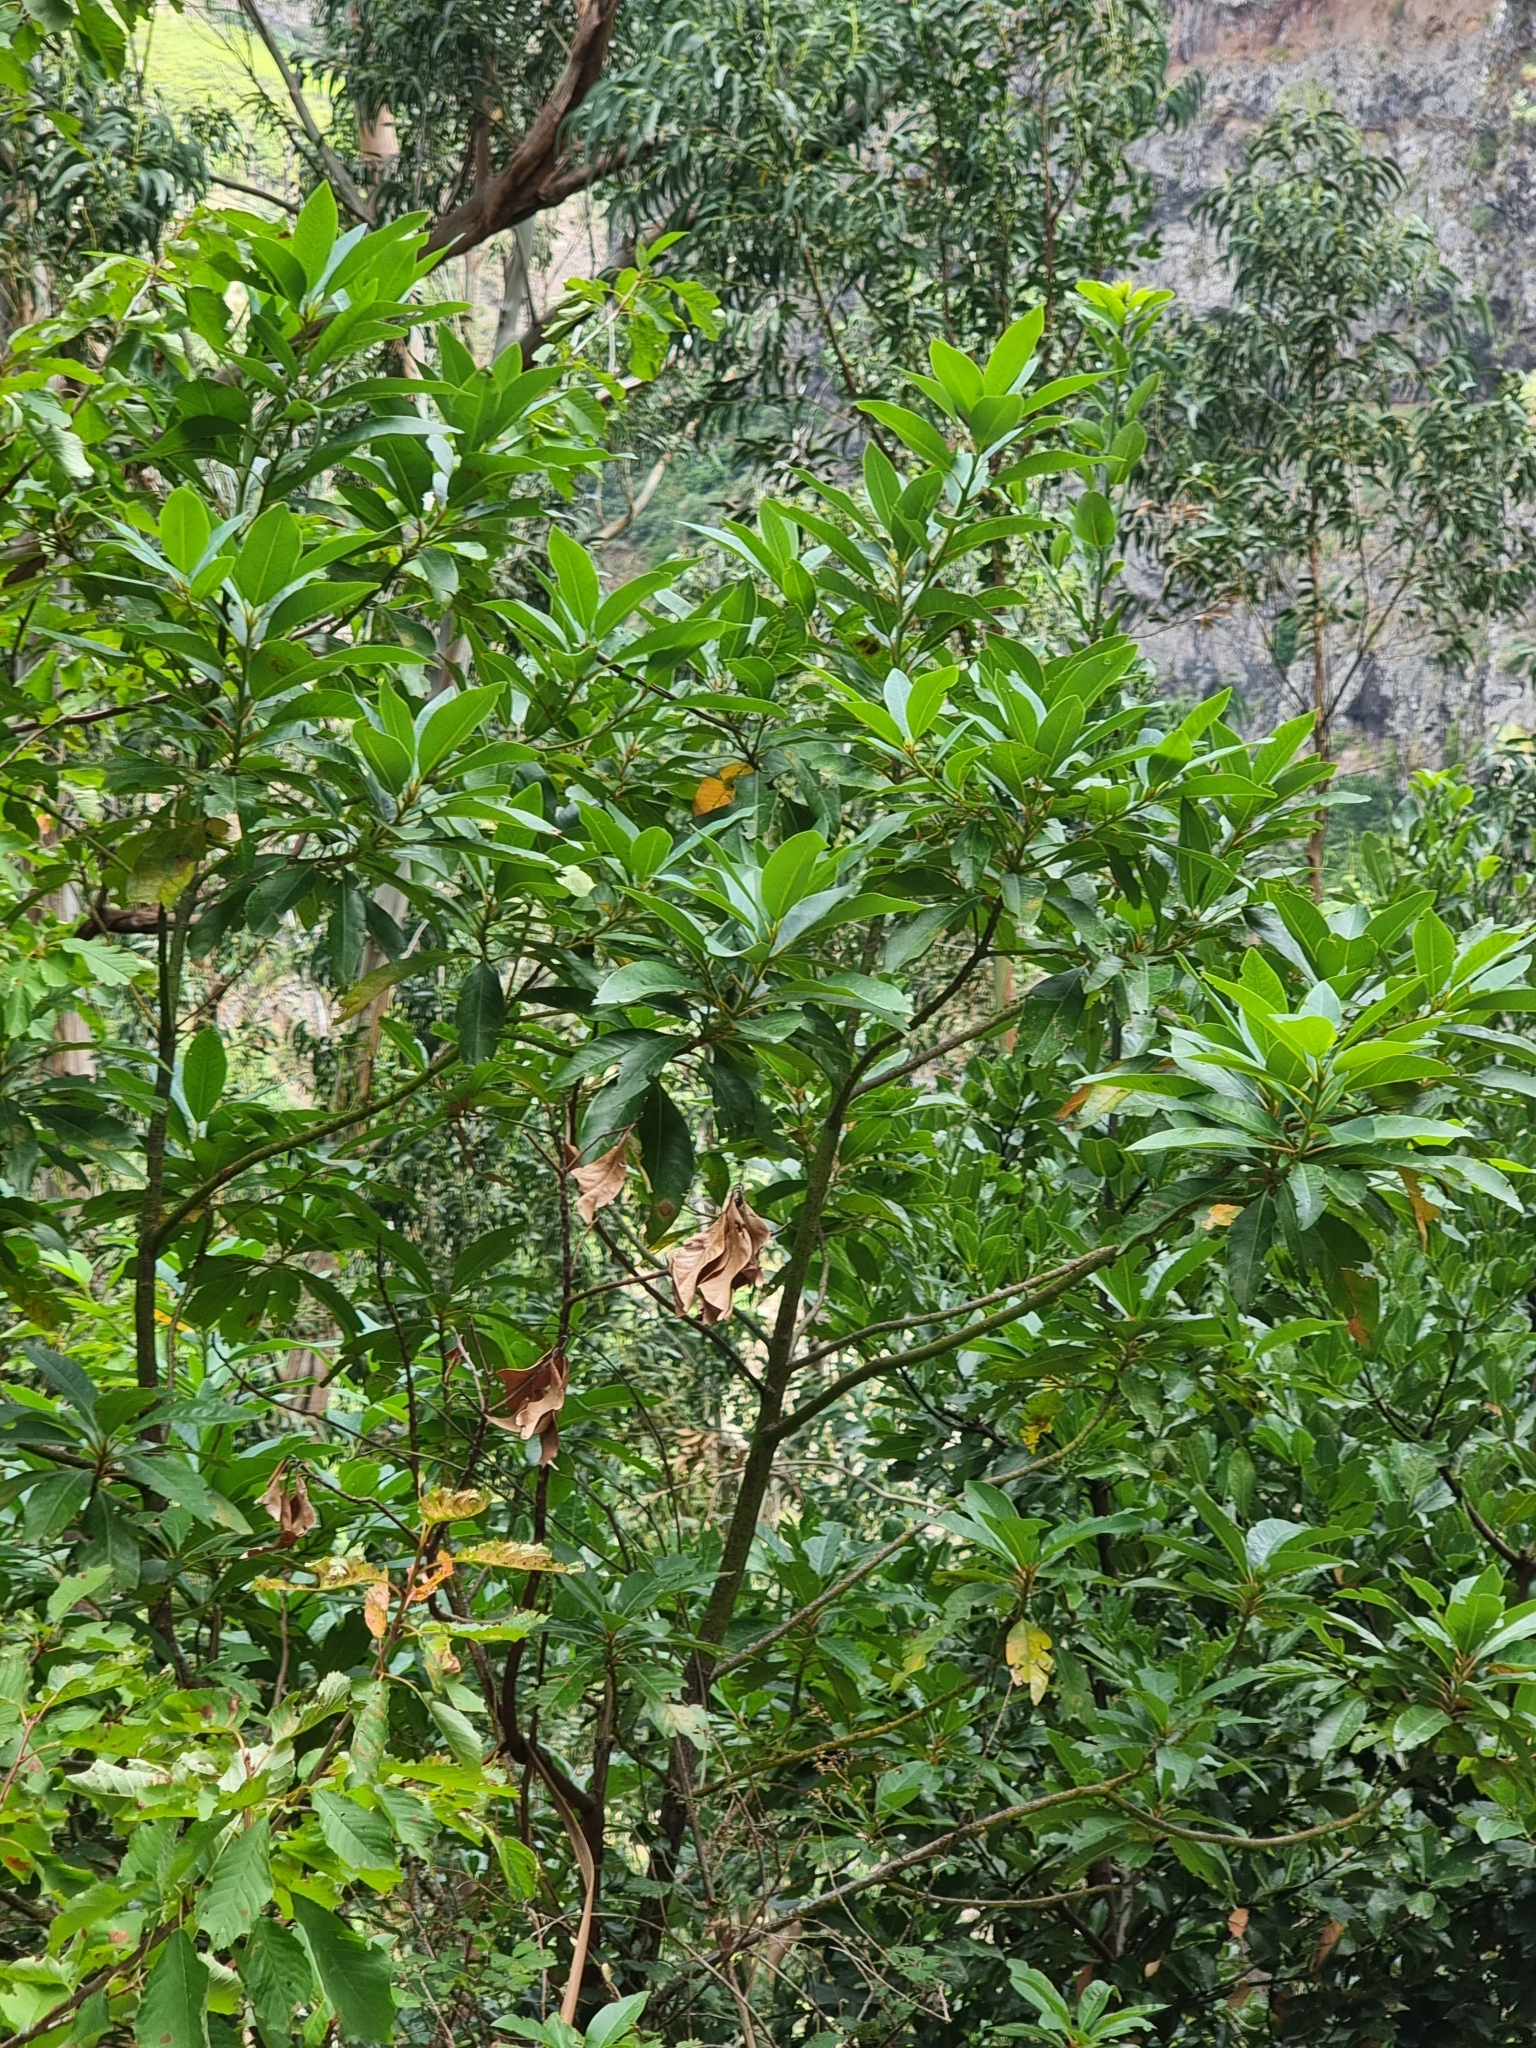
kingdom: Plantae
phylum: Tracheophyta
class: Magnoliopsida
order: Laurales
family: Lauraceae
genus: Persea
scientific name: Persea indica
